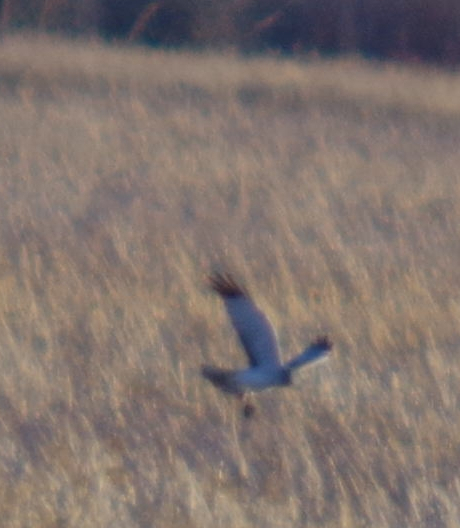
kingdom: Animalia
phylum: Chordata
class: Aves
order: Accipitriformes
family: Accipitridae
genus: Circus
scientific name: Circus cyaneus
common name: Hen harrier
